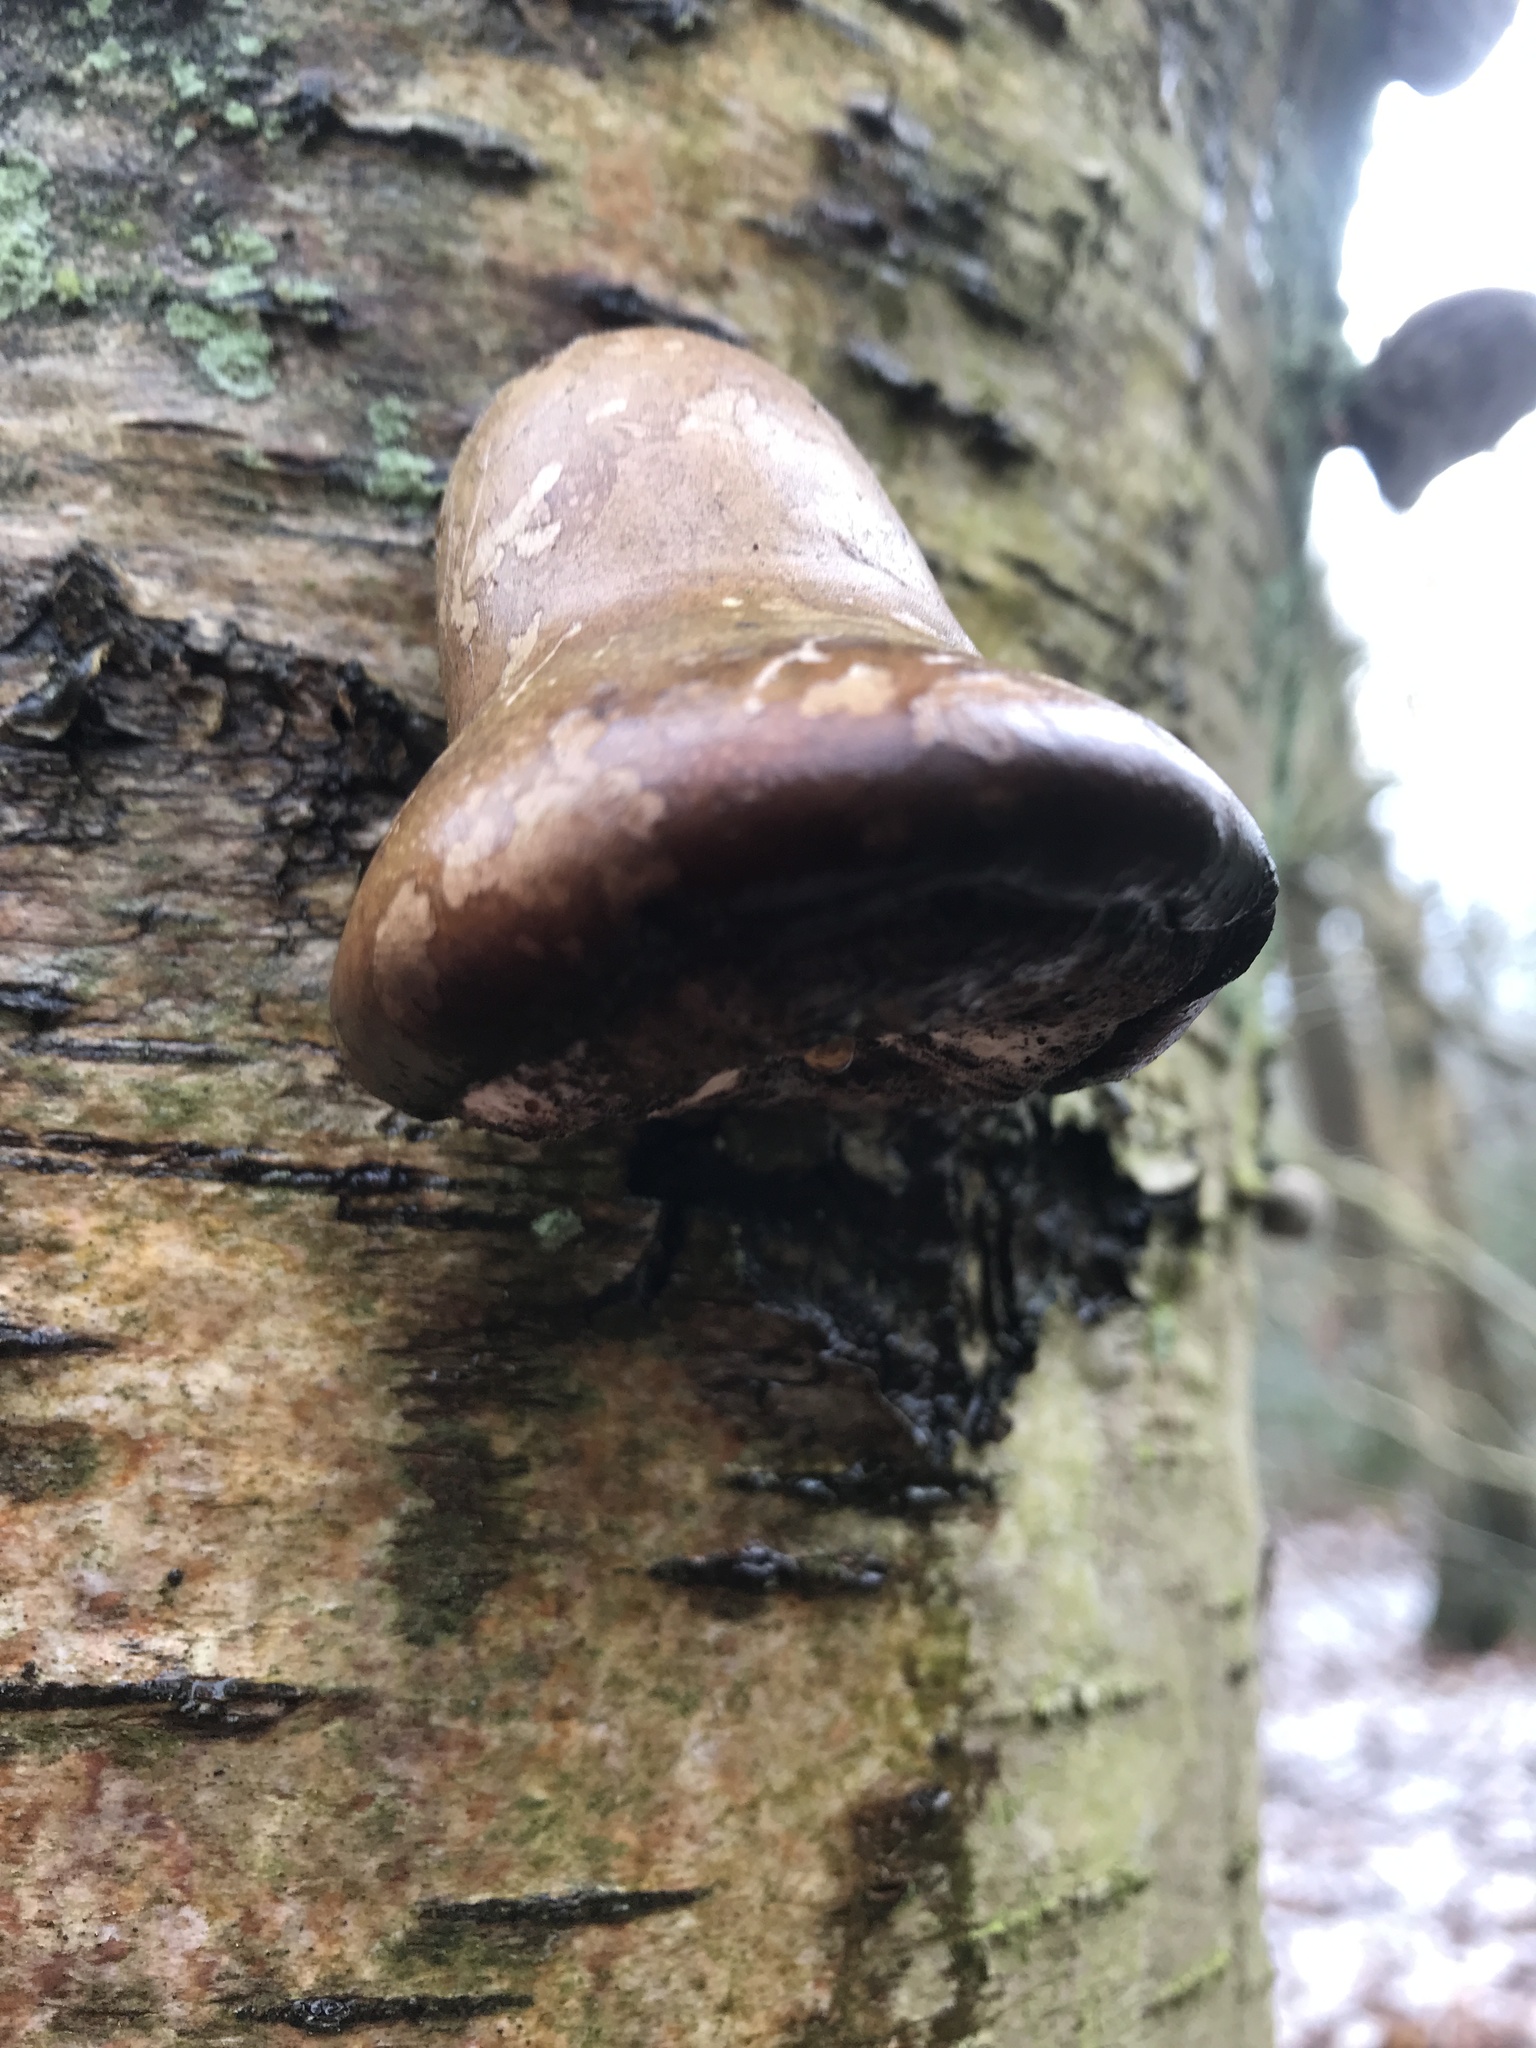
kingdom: Fungi
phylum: Basidiomycota
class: Agaricomycetes
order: Polyporales
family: Fomitopsidaceae
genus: Fomitopsis
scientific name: Fomitopsis betulina
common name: Birch polypore
